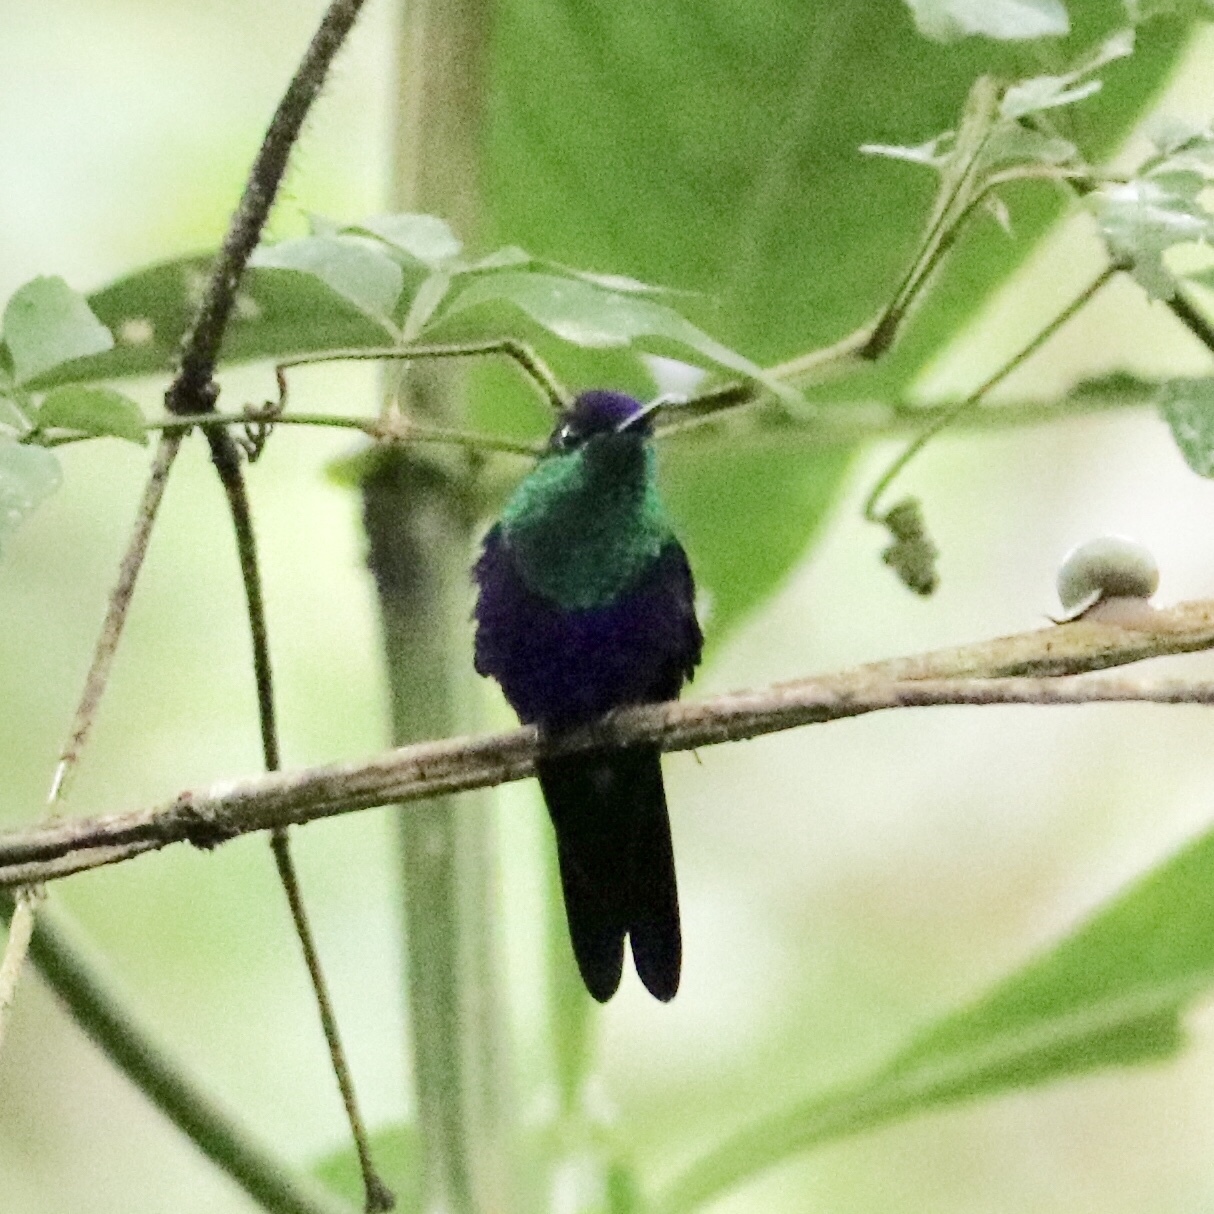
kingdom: Animalia
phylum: Chordata
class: Aves
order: Apodiformes
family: Trochilidae
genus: Thalurania
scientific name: Thalurania colombica
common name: Crowned woodnymph
